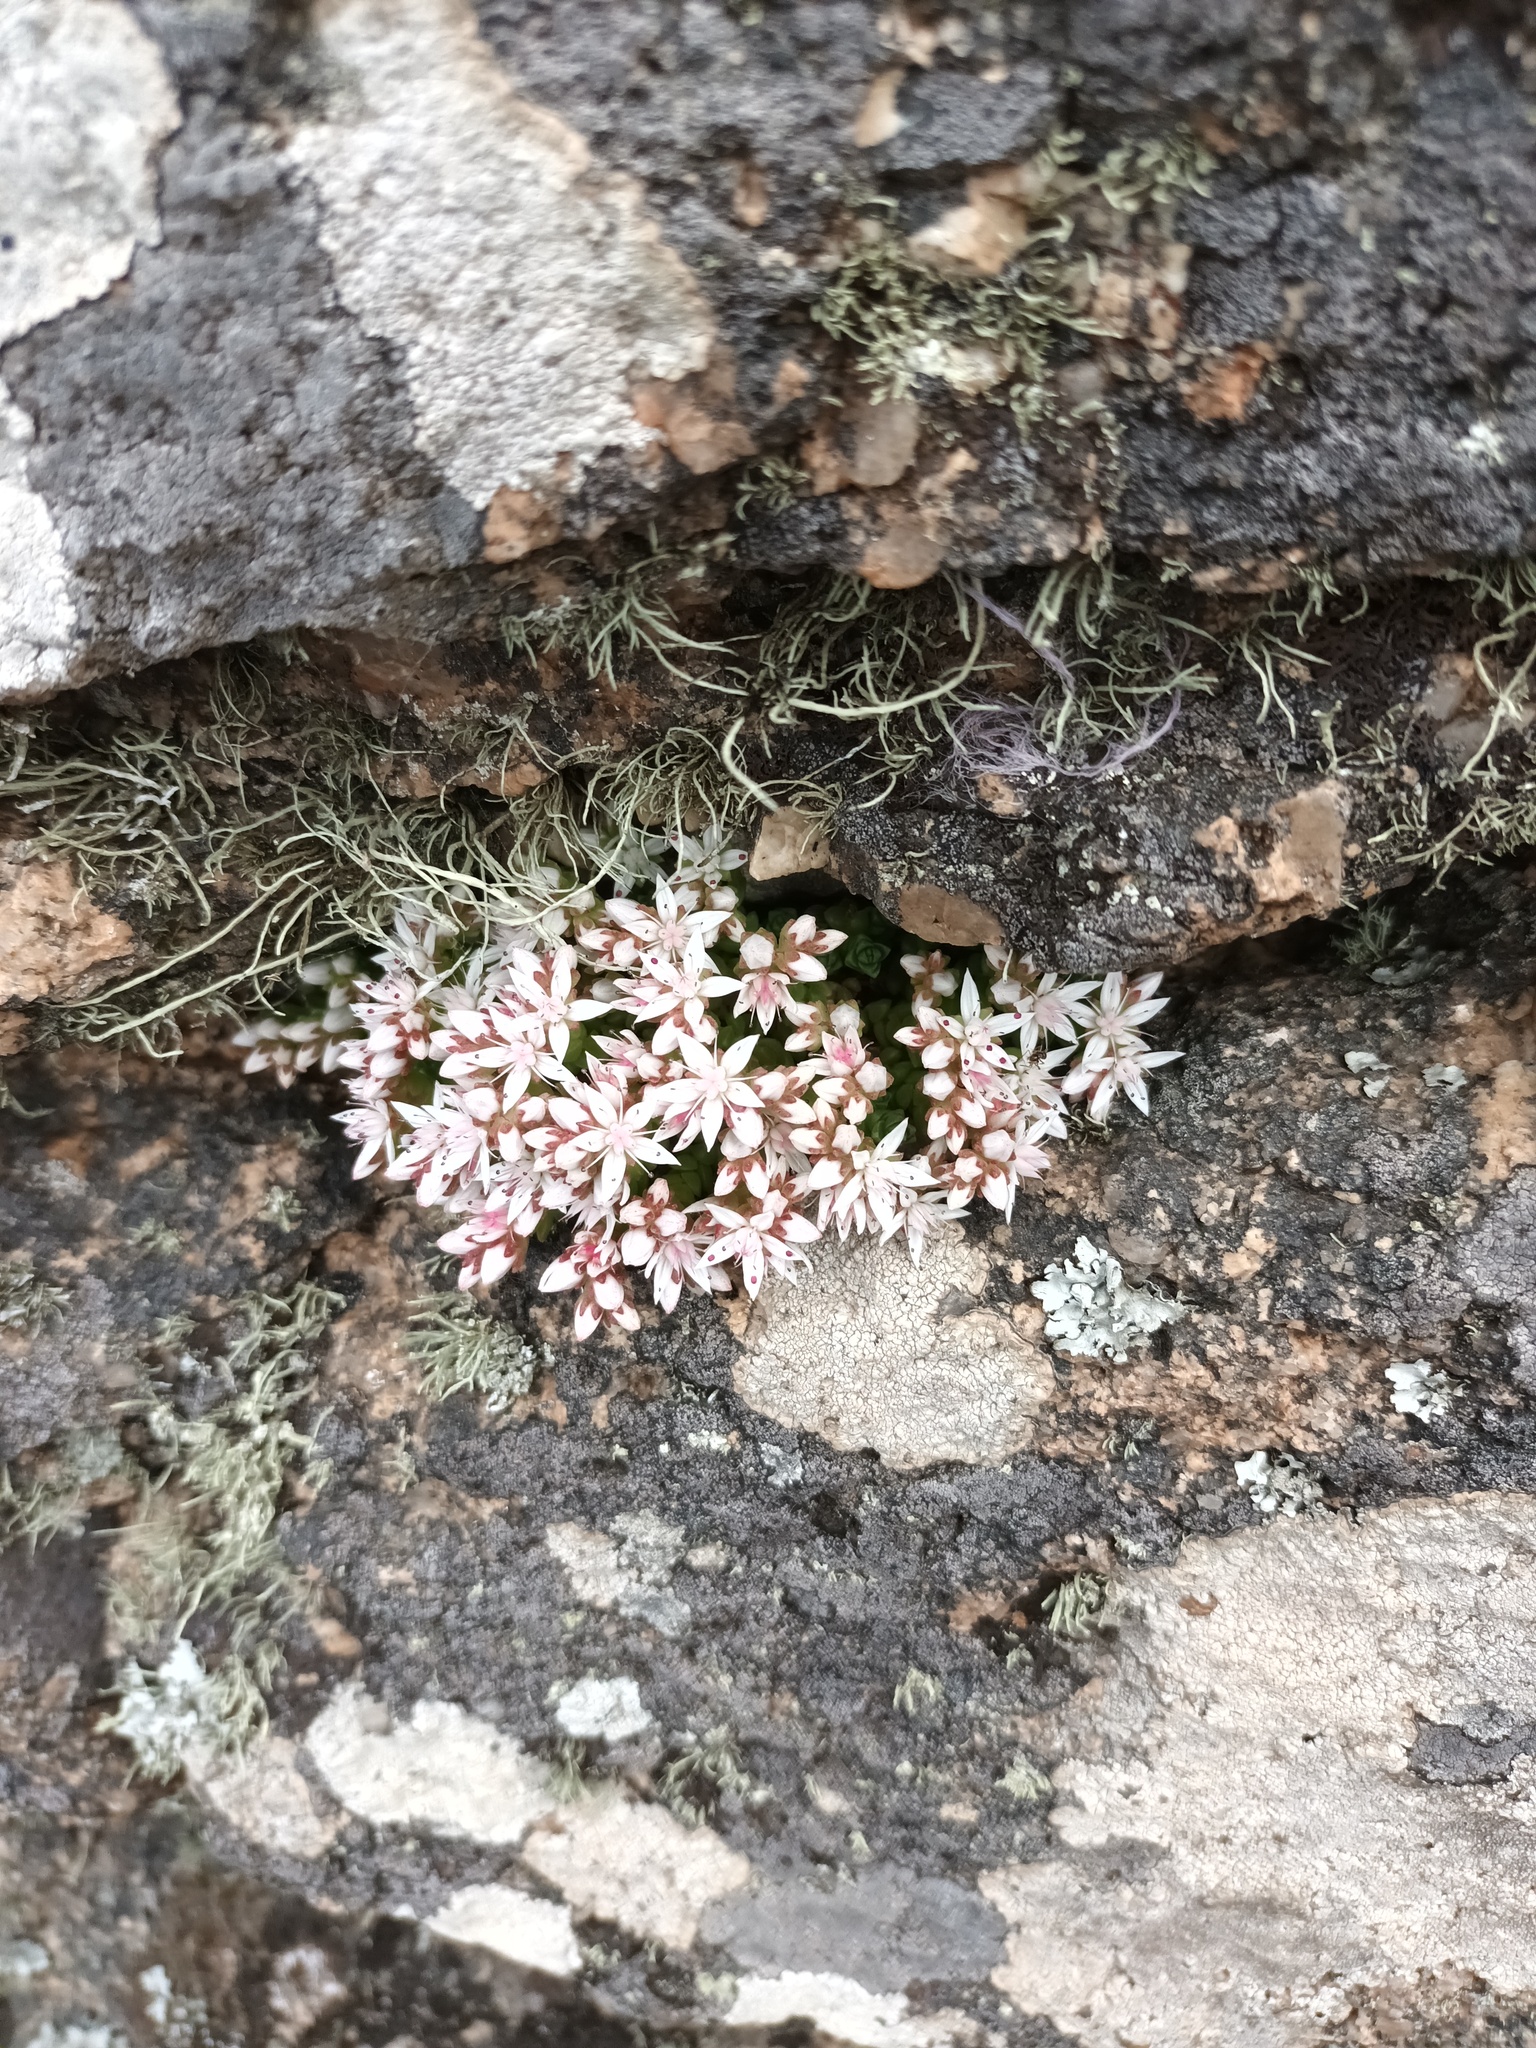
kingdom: Plantae
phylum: Tracheophyta
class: Magnoliopsida
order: Saxifragales
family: Crassulaceae
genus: Sedum
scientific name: Sedum anglicum
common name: English stonecrop
